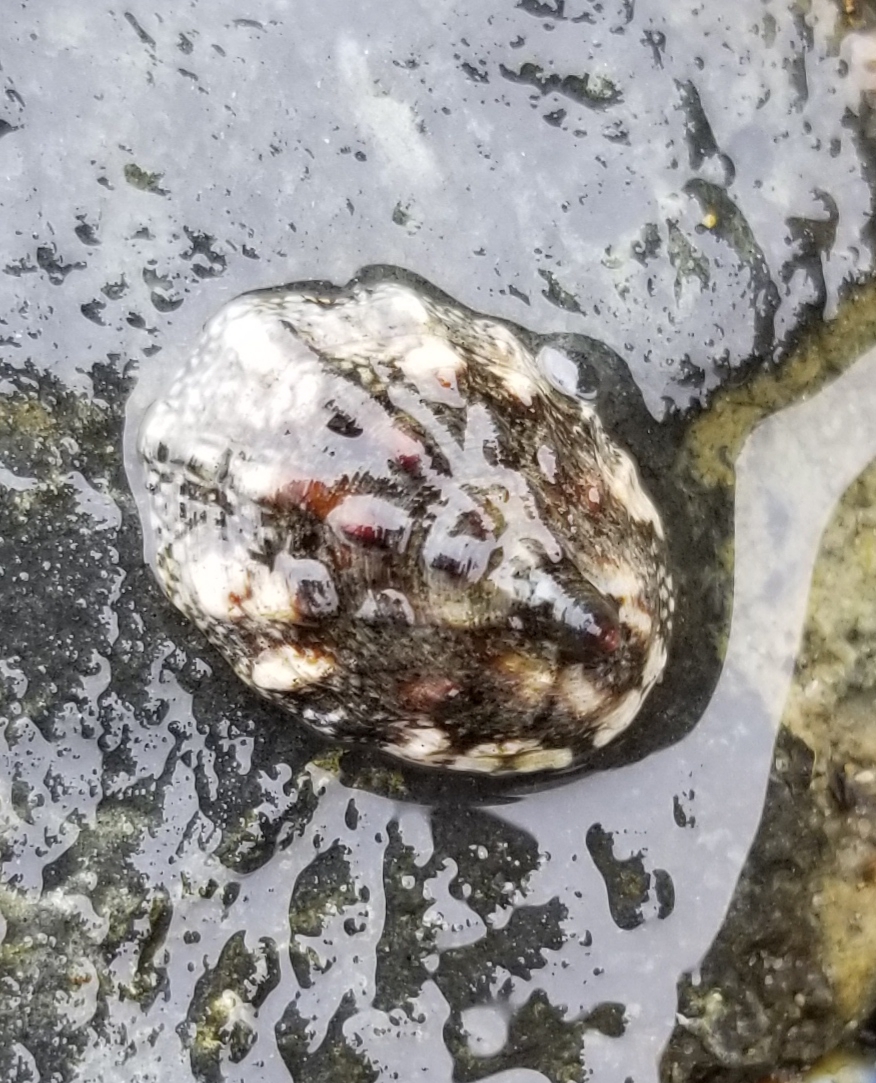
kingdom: Animalia
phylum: Mollusca
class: Gastropoda
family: Lottiidae
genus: Lottia
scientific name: Lottia digitalis
